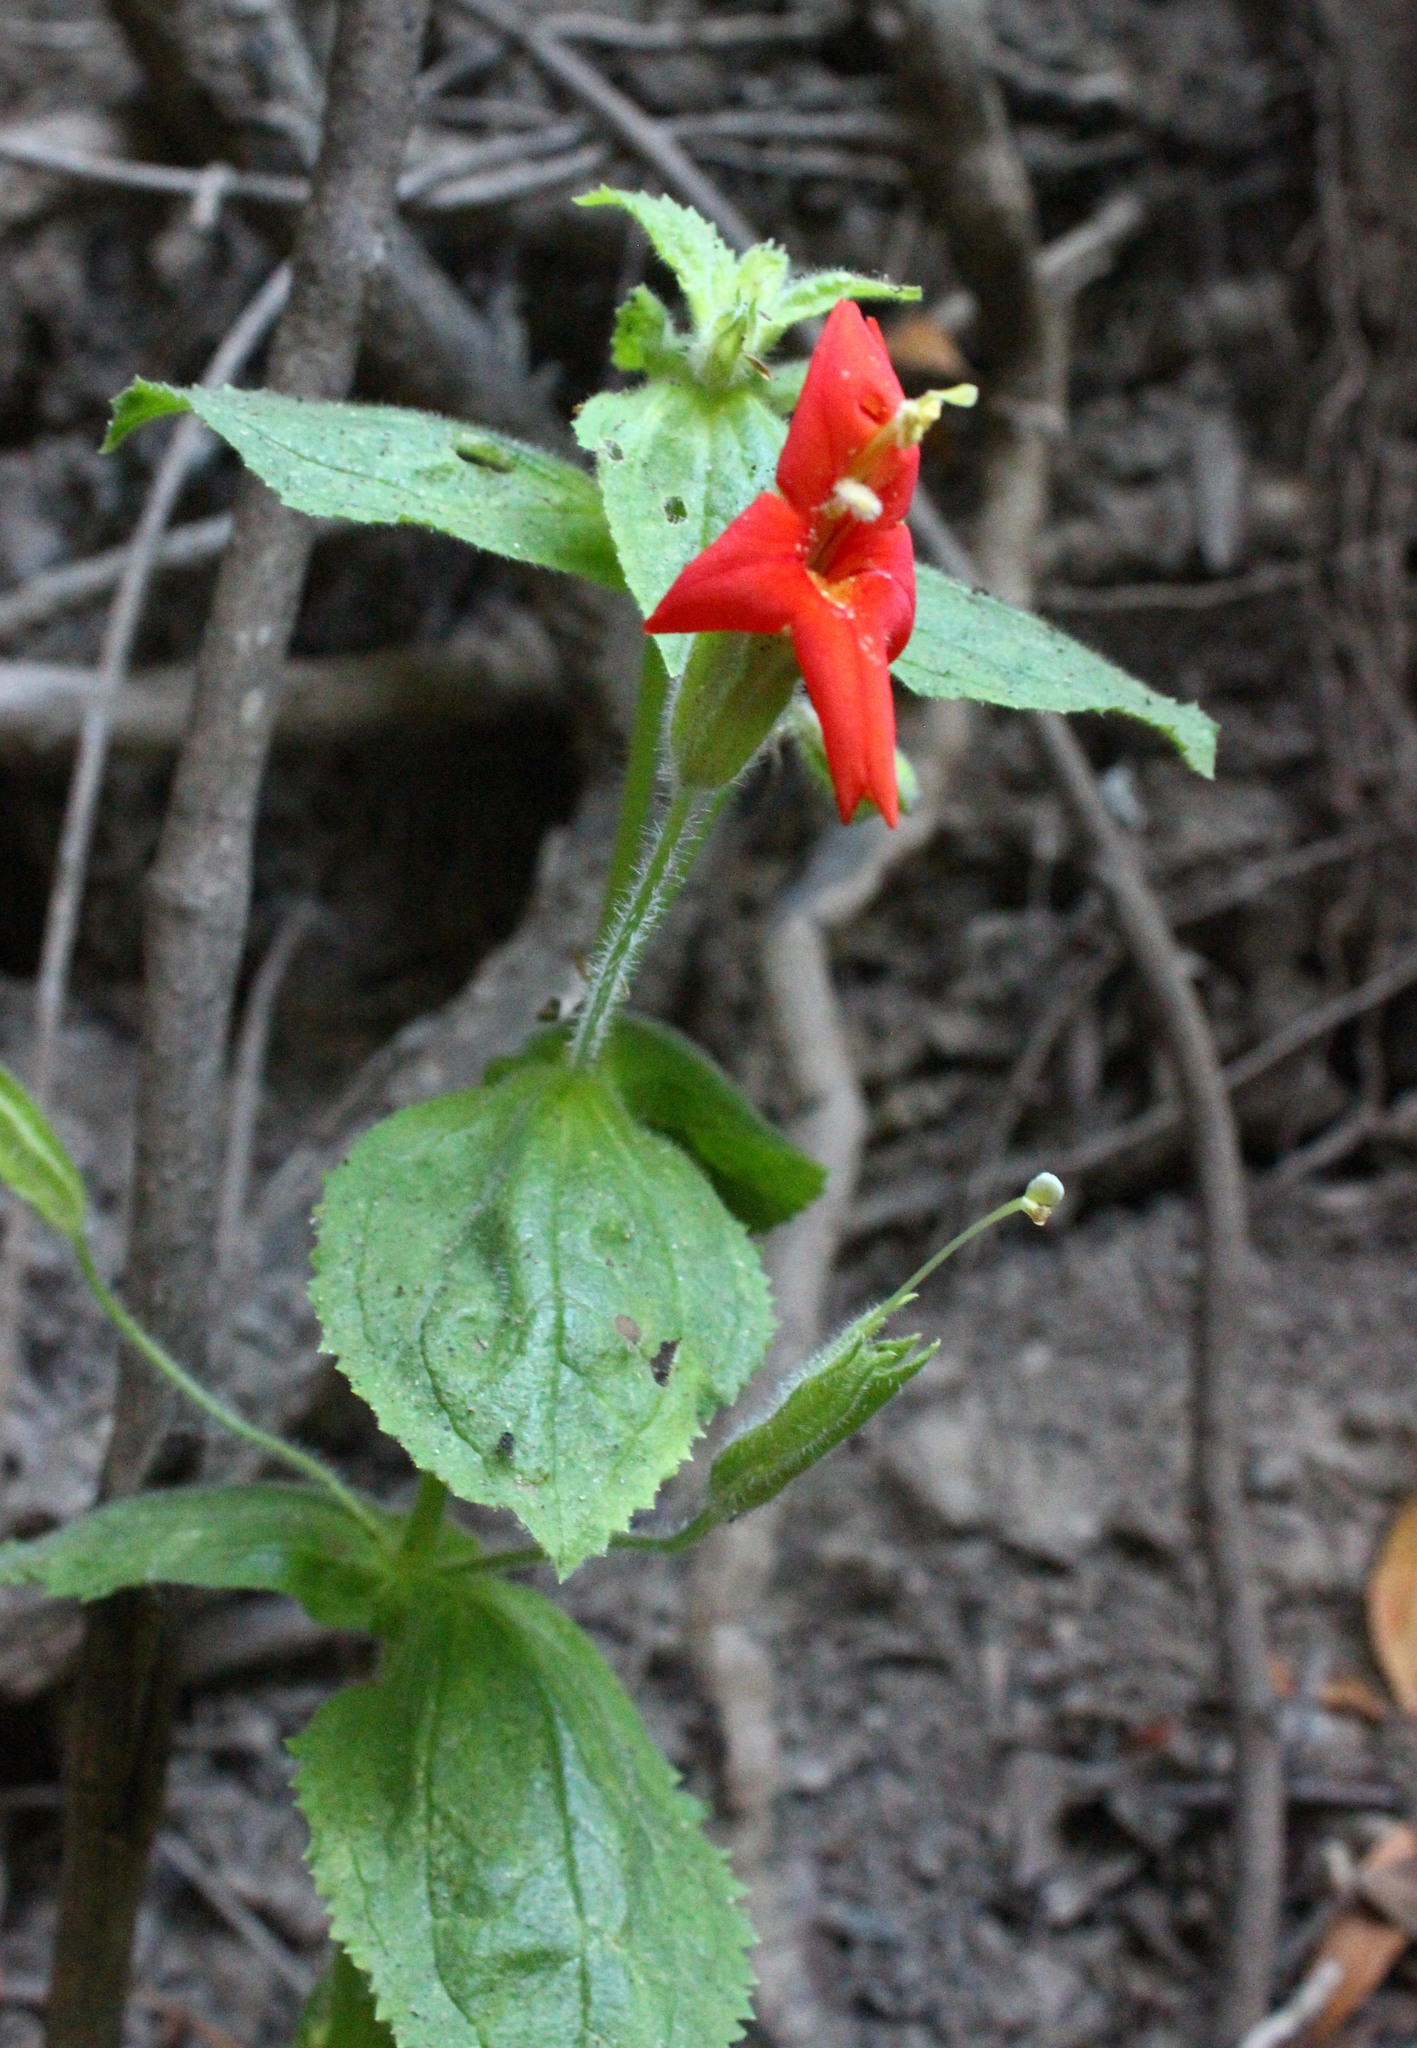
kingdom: Plantae
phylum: Tracheophyta
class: Magnoliopsida
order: Lamiales
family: Phrymaceae
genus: Erythranthe
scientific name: Erythranthe cardinalis
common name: Scarlet monkey-flower
